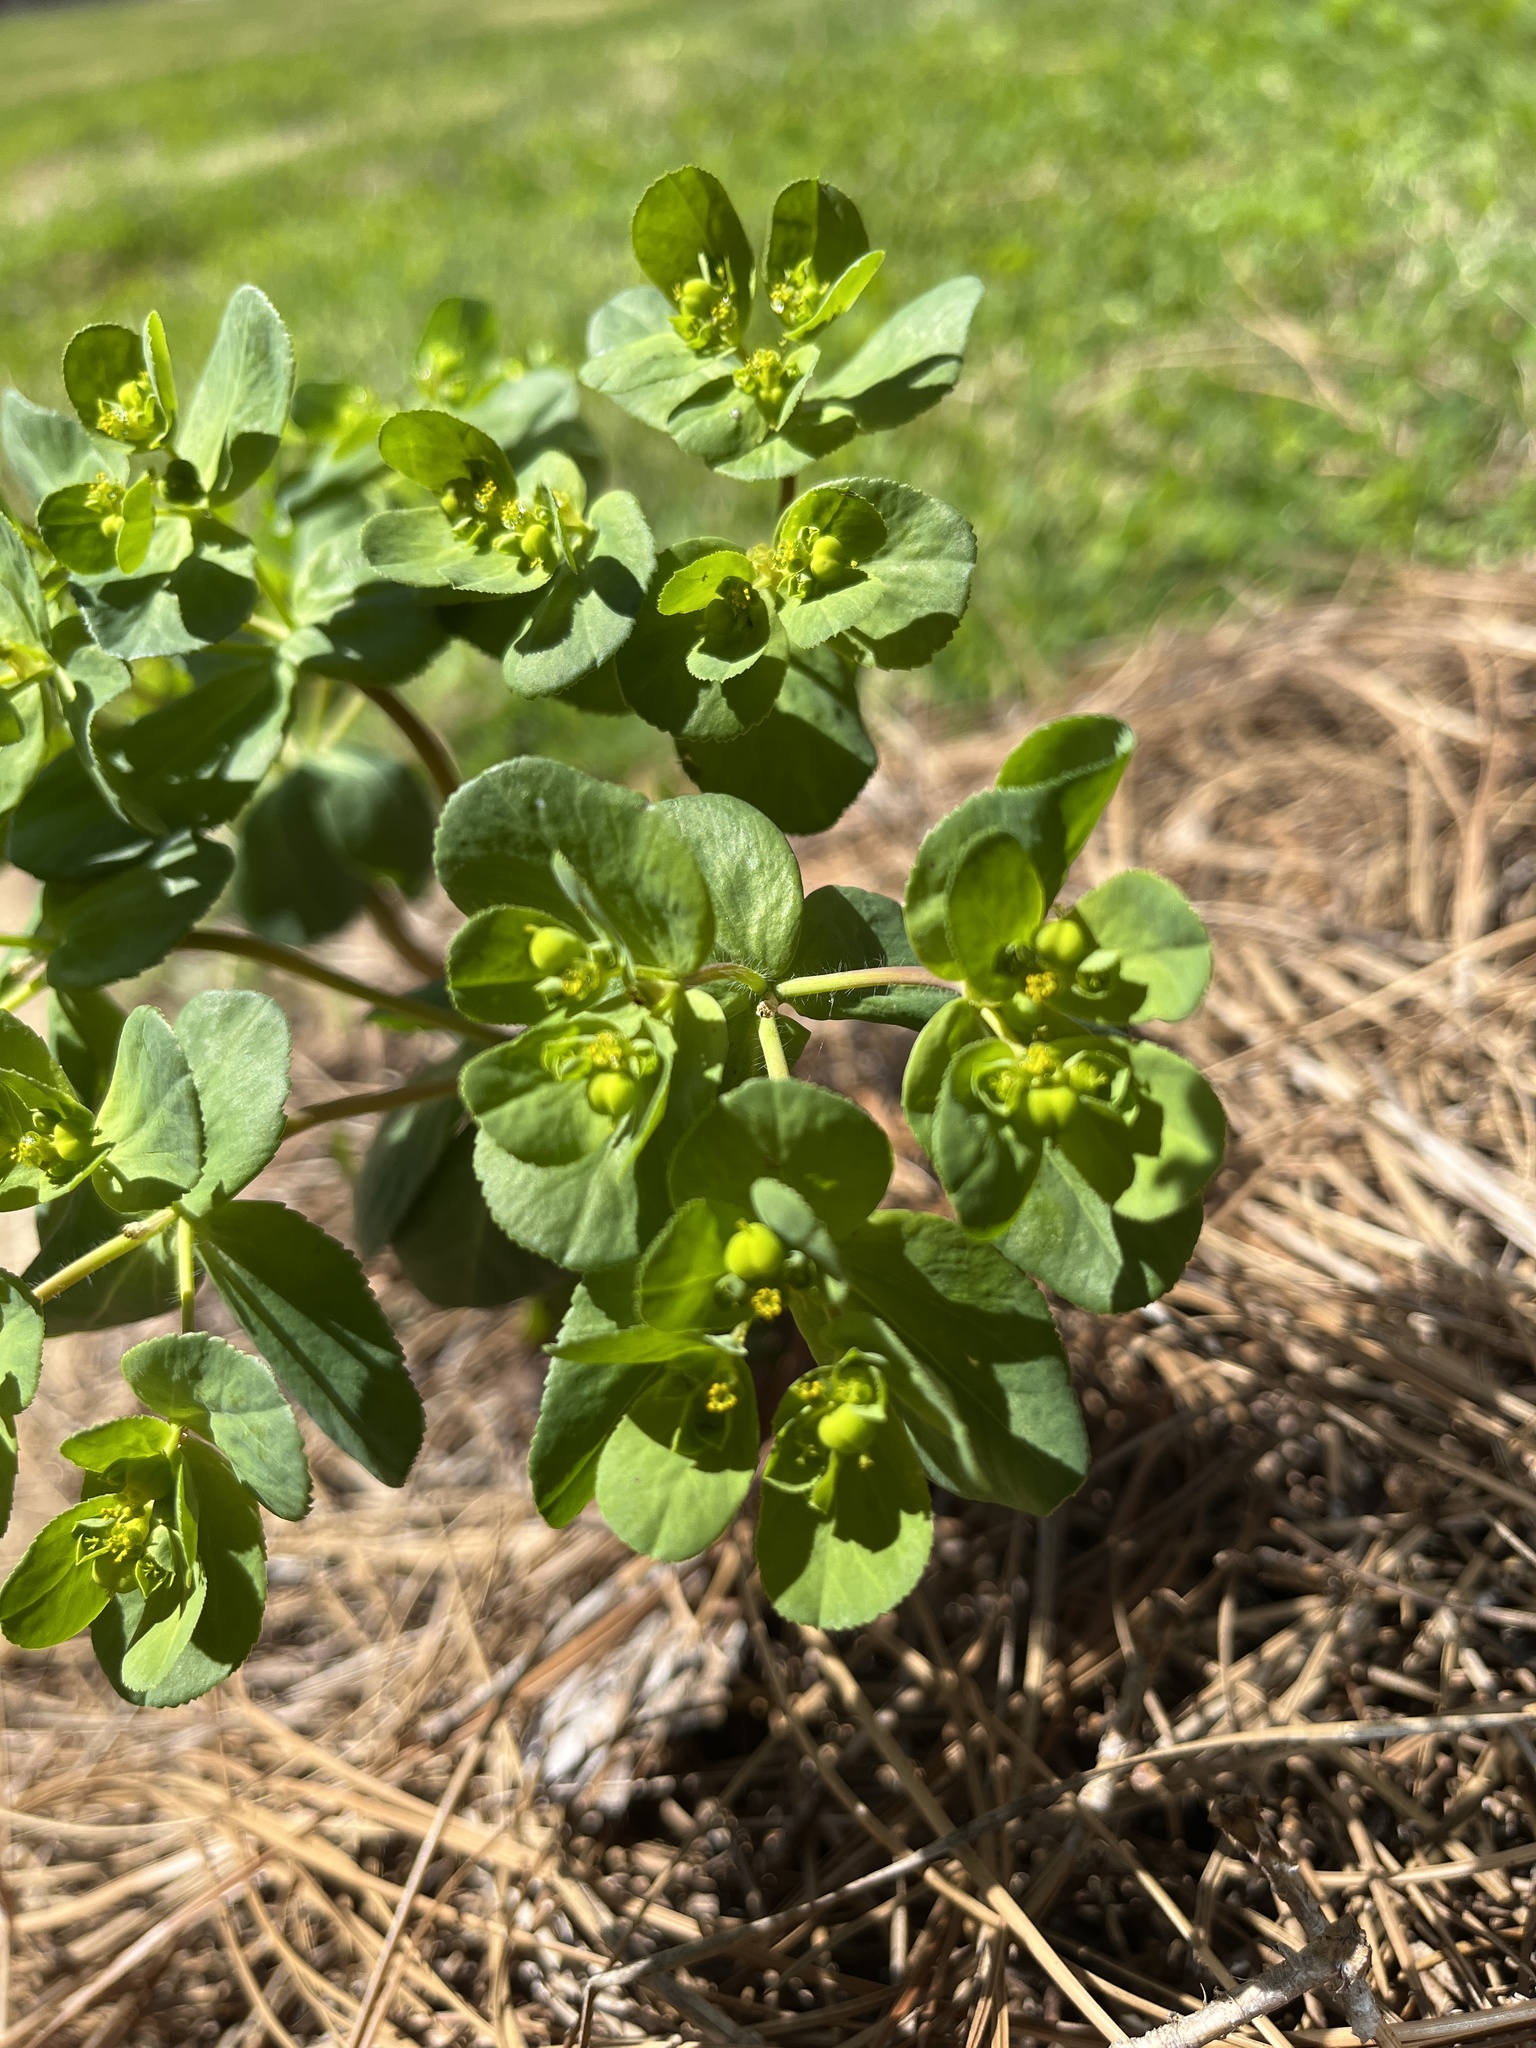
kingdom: Plantae
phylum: Tracheophyta
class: Magnoliopsida
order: Malpighiales
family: Euphorbiaceae
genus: Euphorbia
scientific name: Euphorbia helioscopia
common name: Sun spurge
